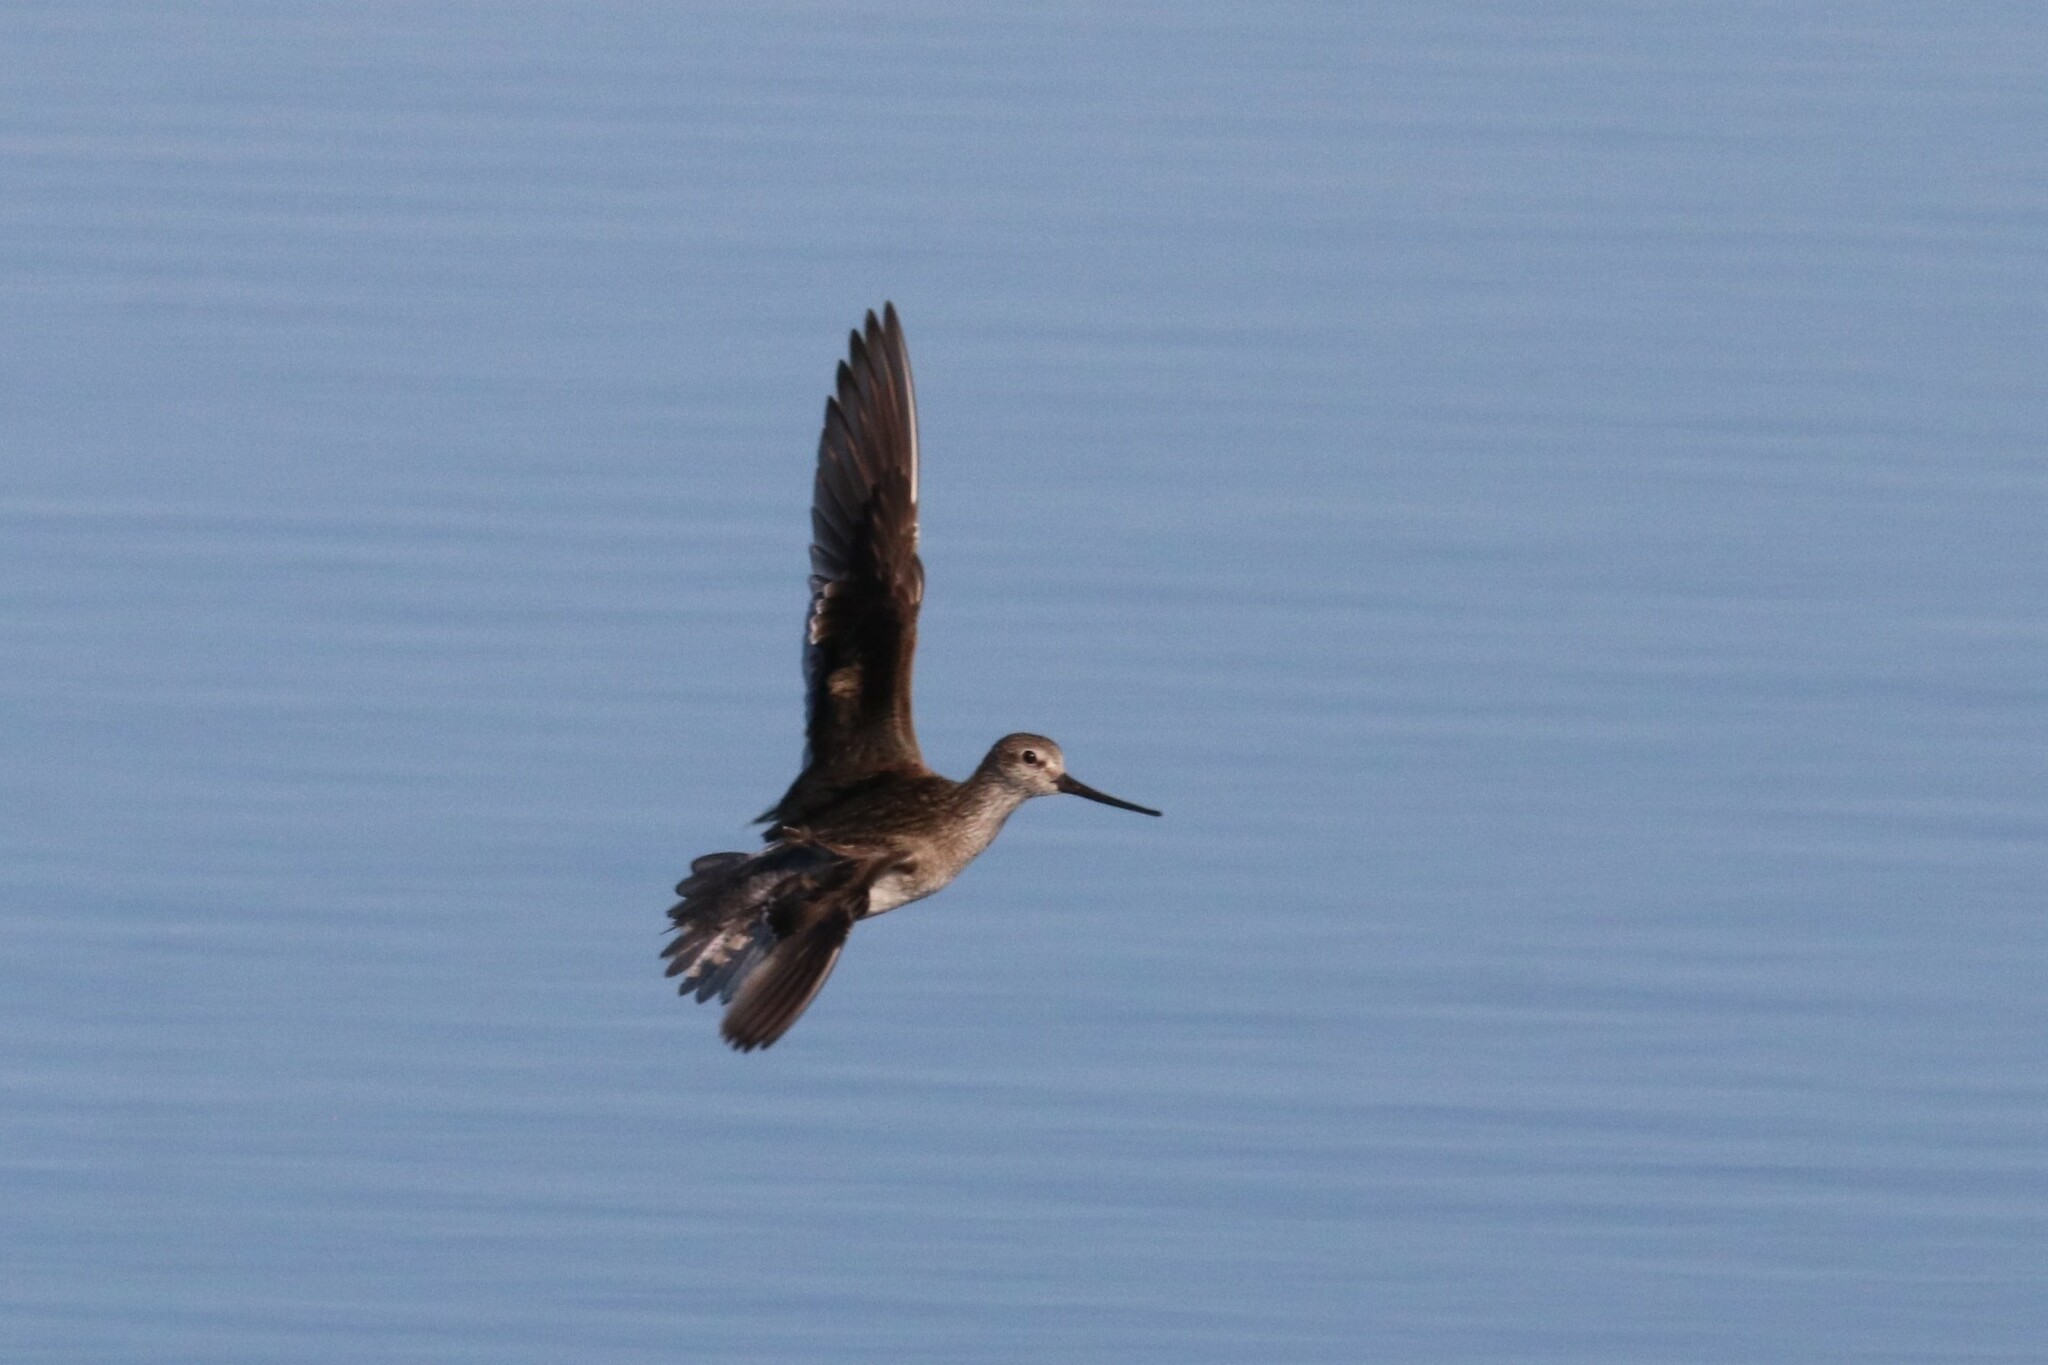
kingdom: Animalia
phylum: Chordata
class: Aves
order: Charadriiformes
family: Scolopacidae
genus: Xenus
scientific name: Xenus cinereus
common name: Terek sandpiper
